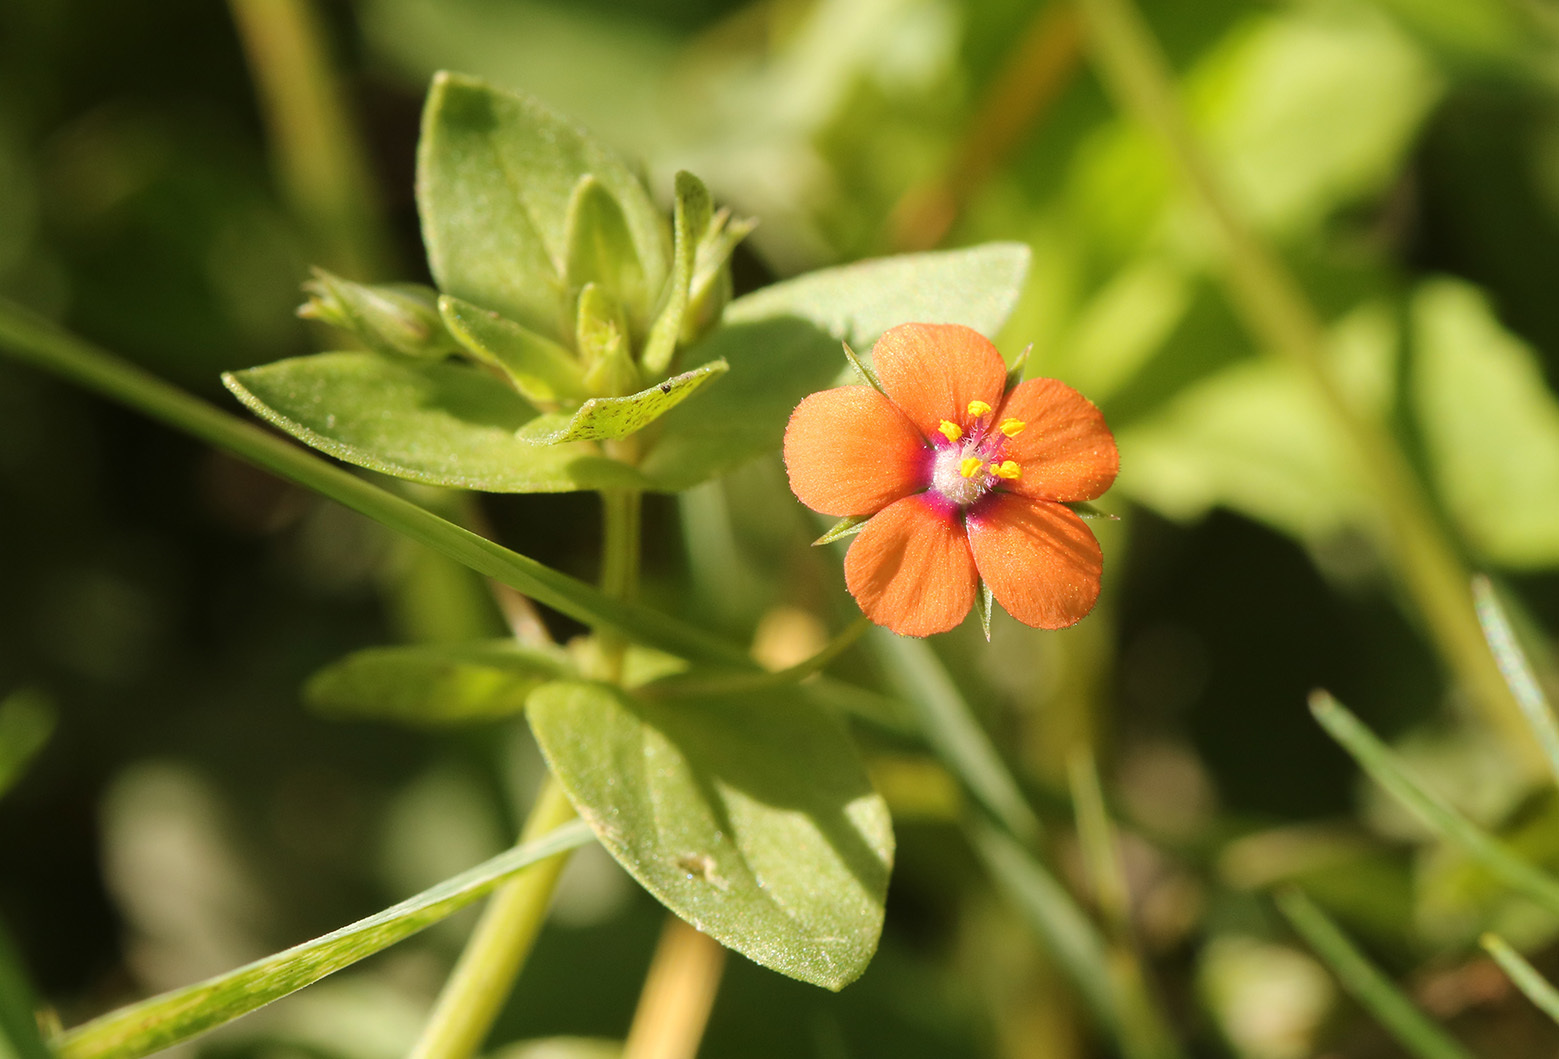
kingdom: Plantae
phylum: Tracheophyta
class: Magnoliopsida
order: Ericales
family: Primulaceae
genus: Lysimachia
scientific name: Lysimachia arvensis
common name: Scarlet pimpernel
